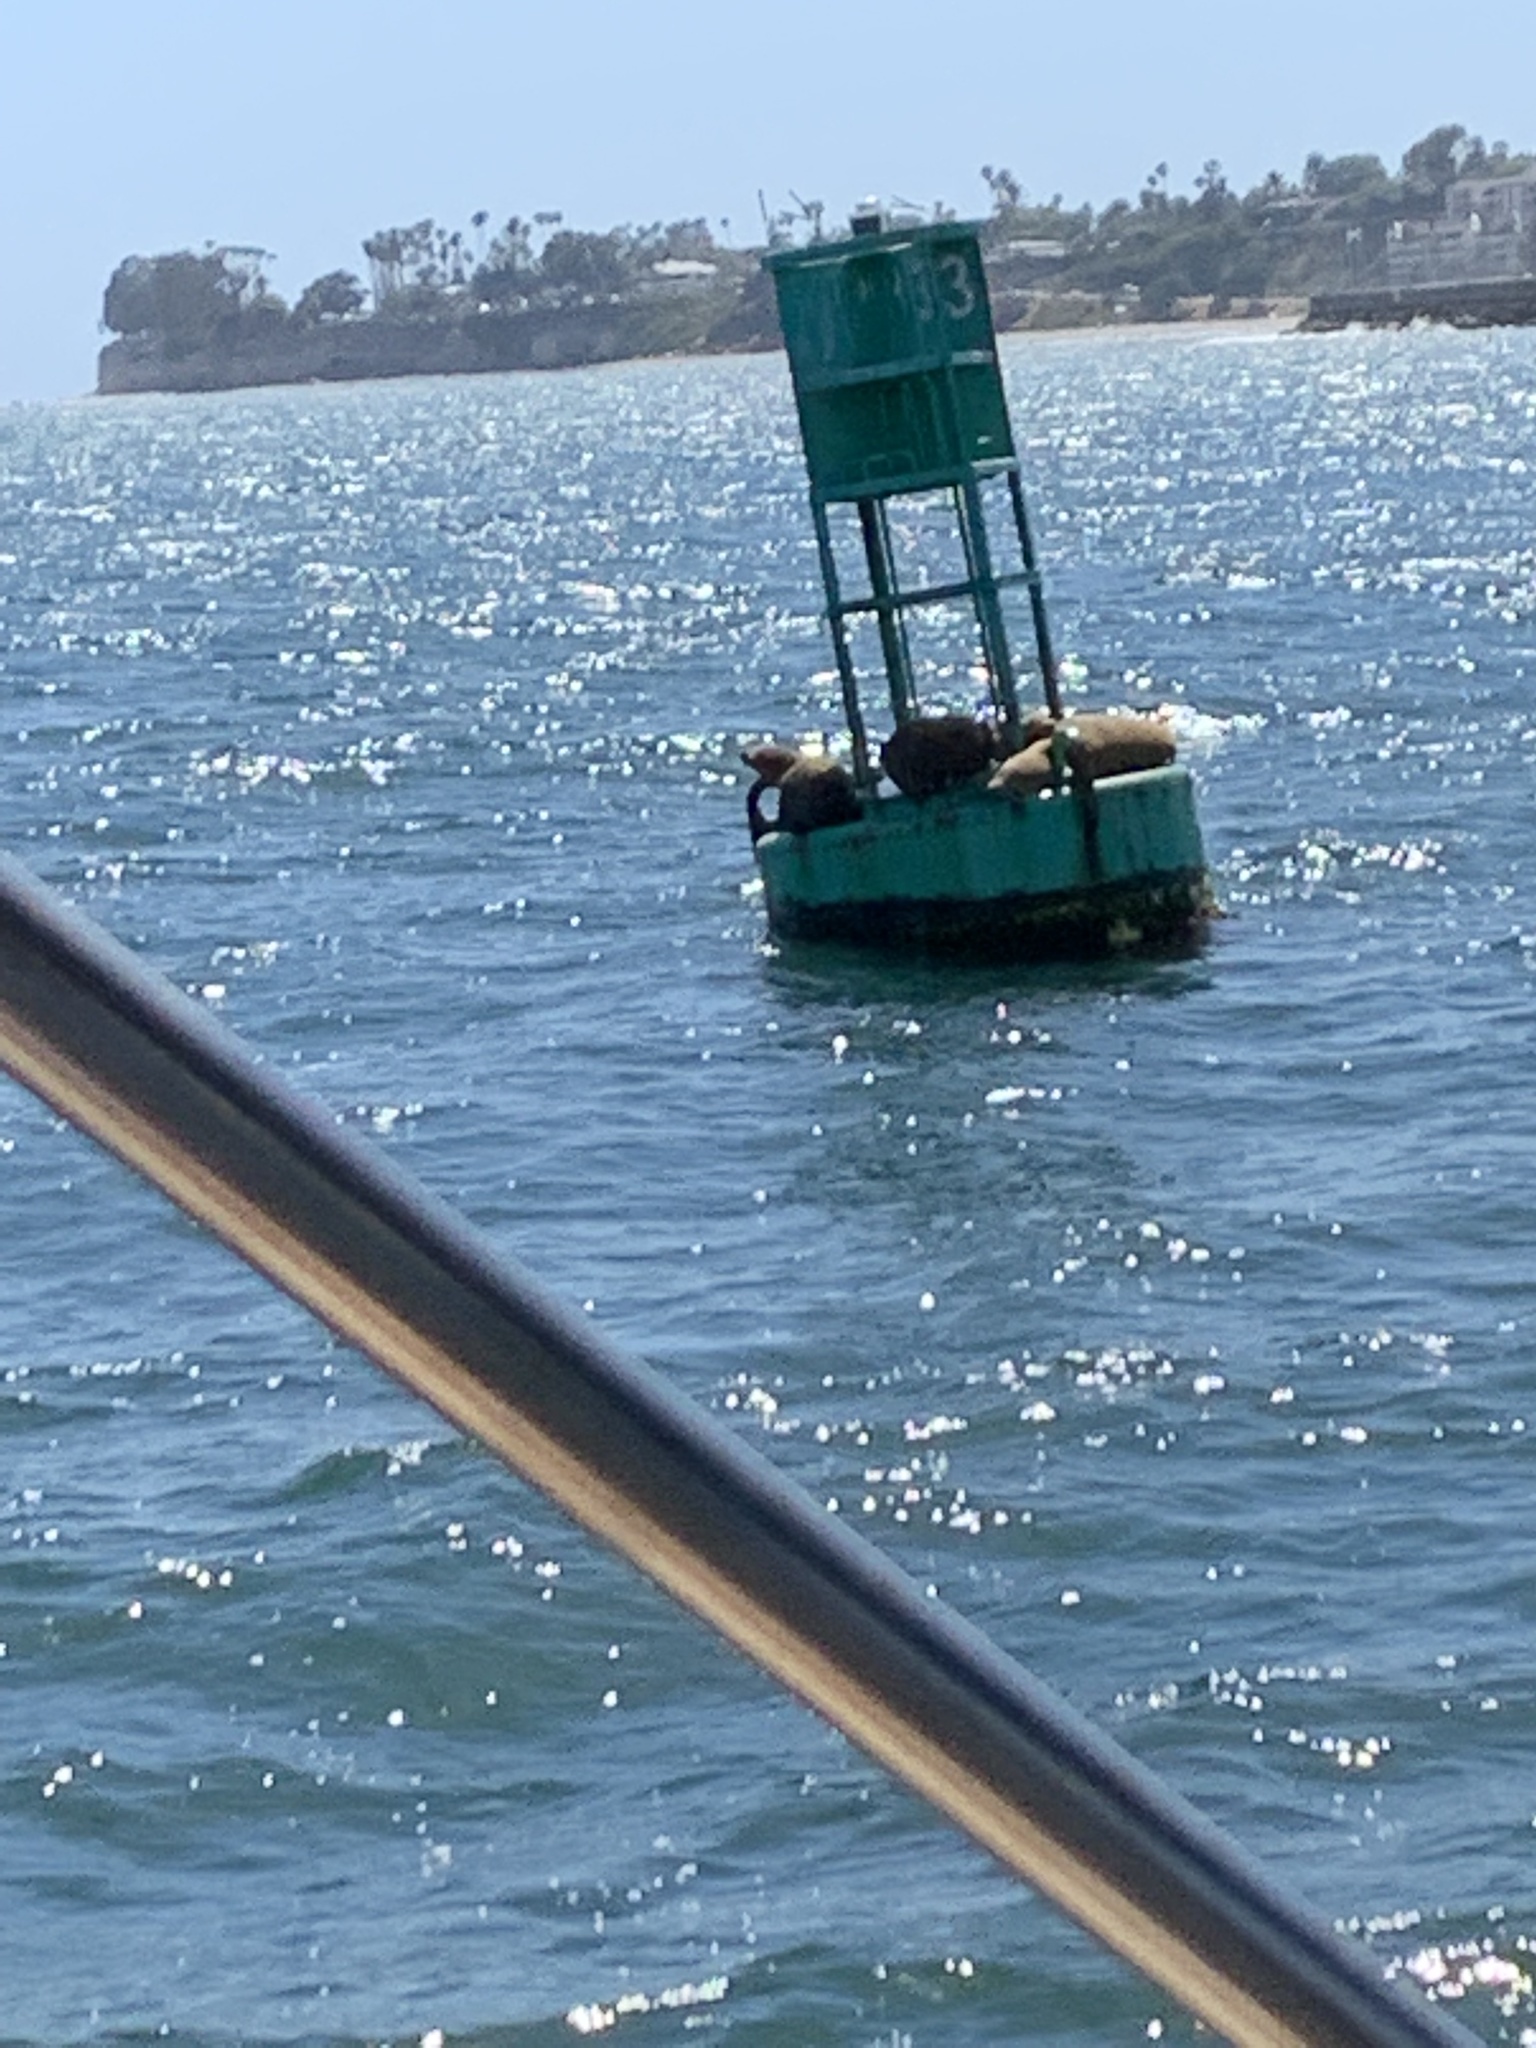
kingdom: Animalia
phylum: Chordata
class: Mammalia
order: Carnivora
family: Otariidae
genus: Zalophus
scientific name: Zalophus californianus
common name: California sea lion
